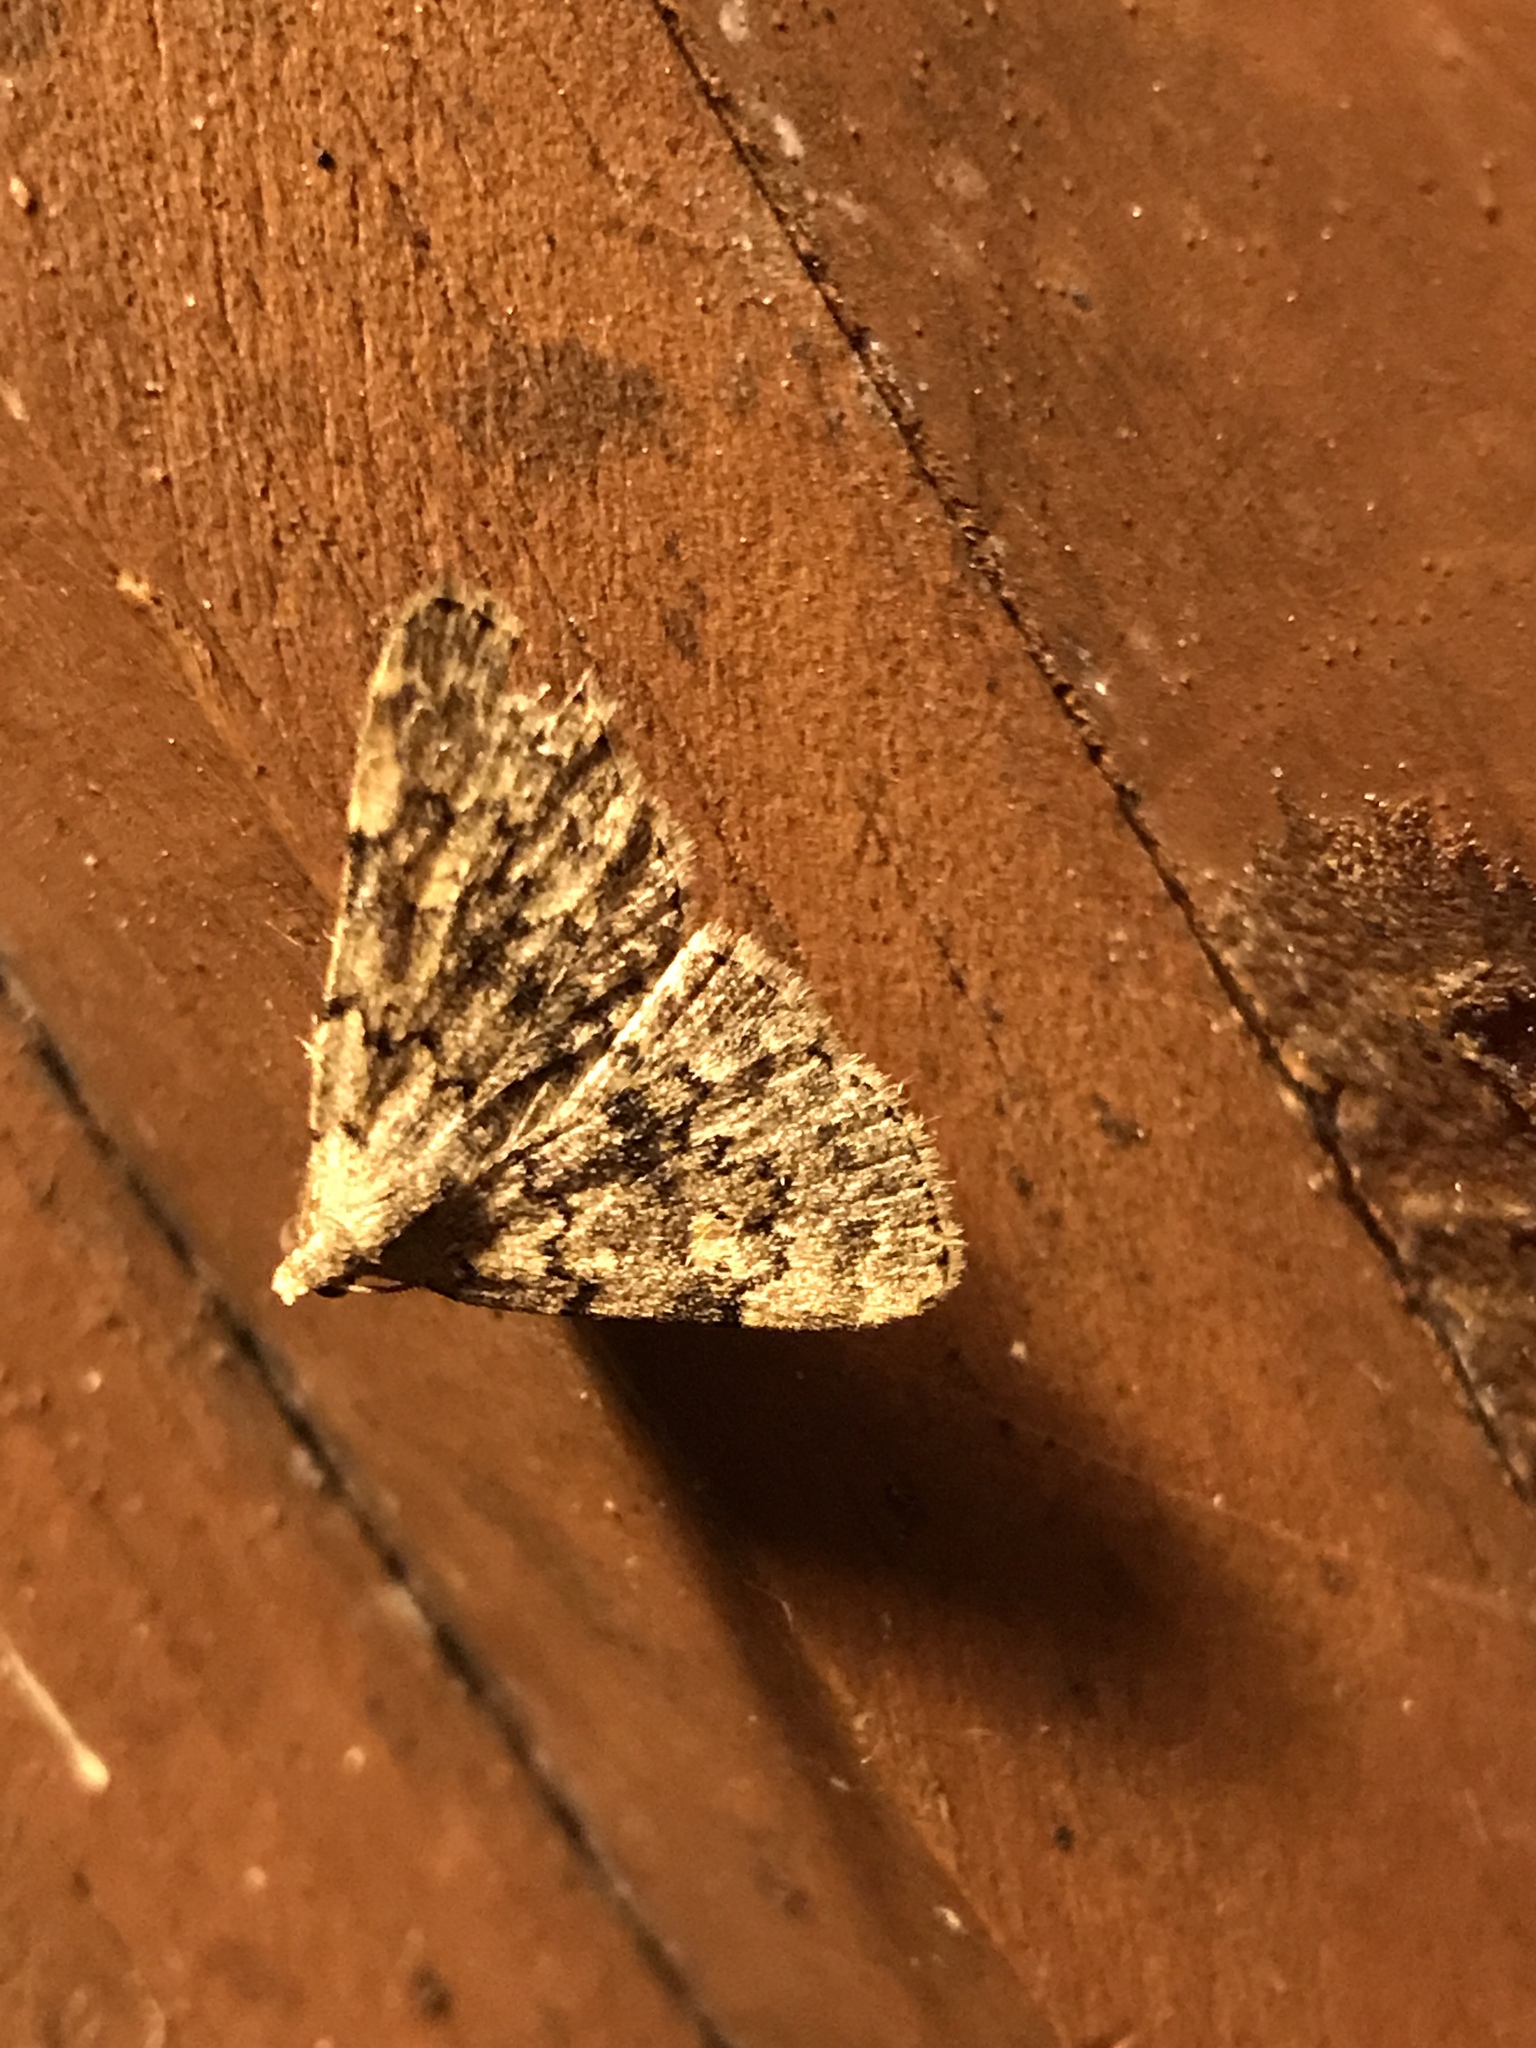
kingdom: Animalia
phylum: Arthropoda
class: Insecta
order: Lepidoptera
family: Erebidae
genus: Idia
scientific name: Idia aemula
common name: Common idia moth
